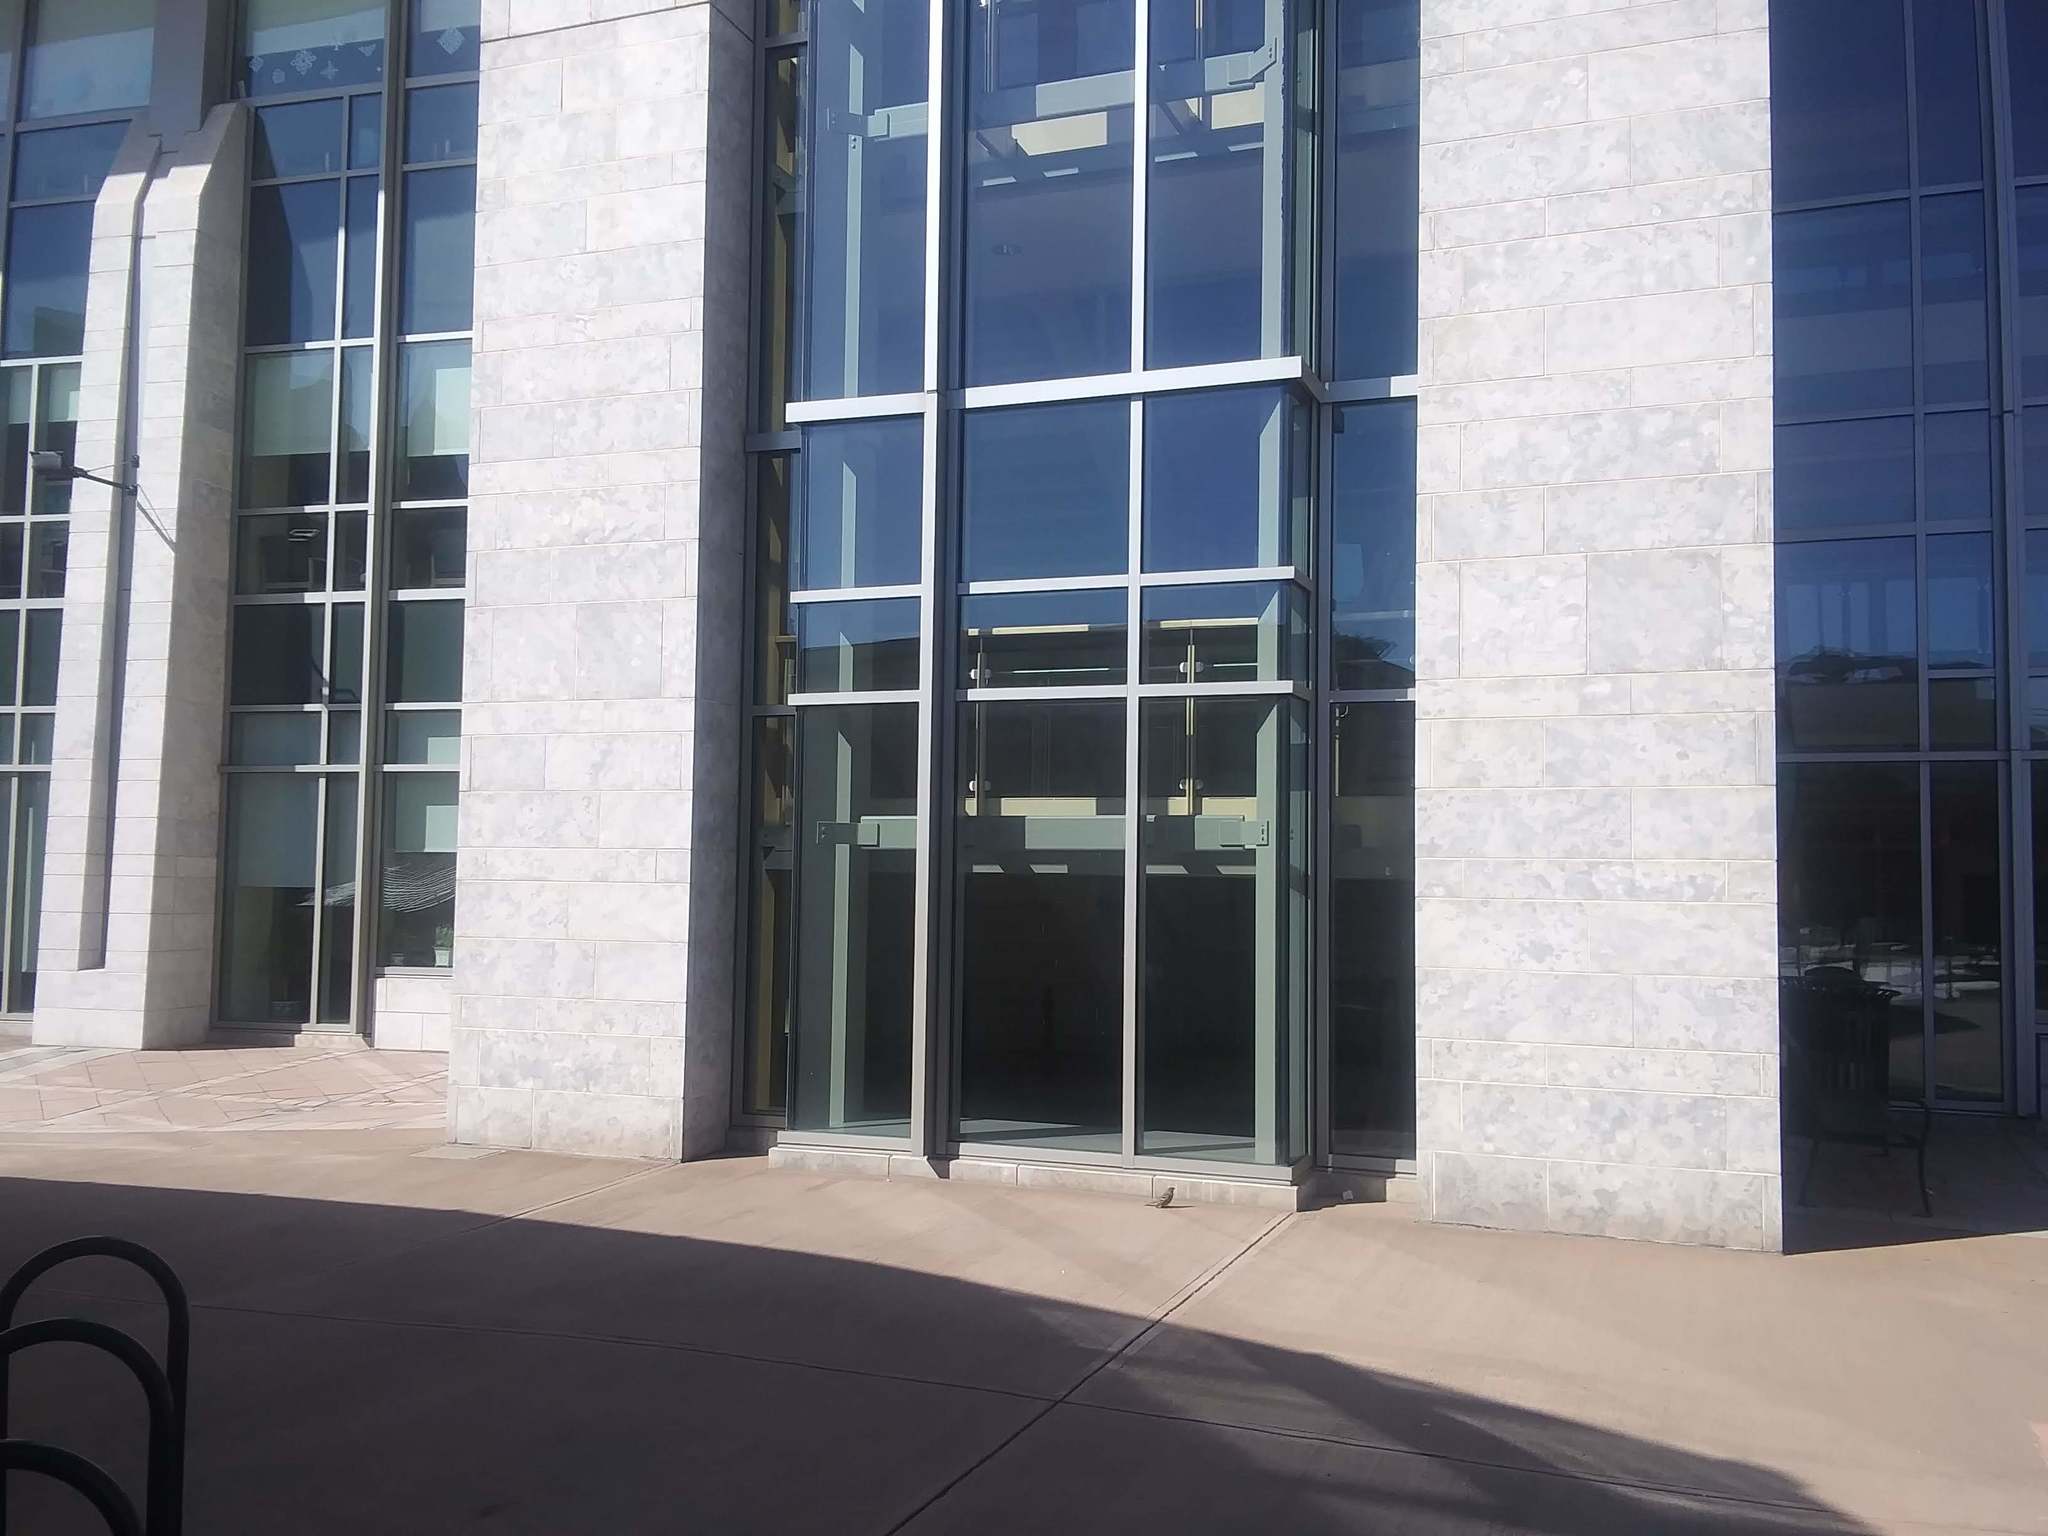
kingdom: Animalia
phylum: Chordata
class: Aves
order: Passeriformes
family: Fringillidae
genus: Pinicola
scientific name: Pinicola enucleator
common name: Pine grosbeak
